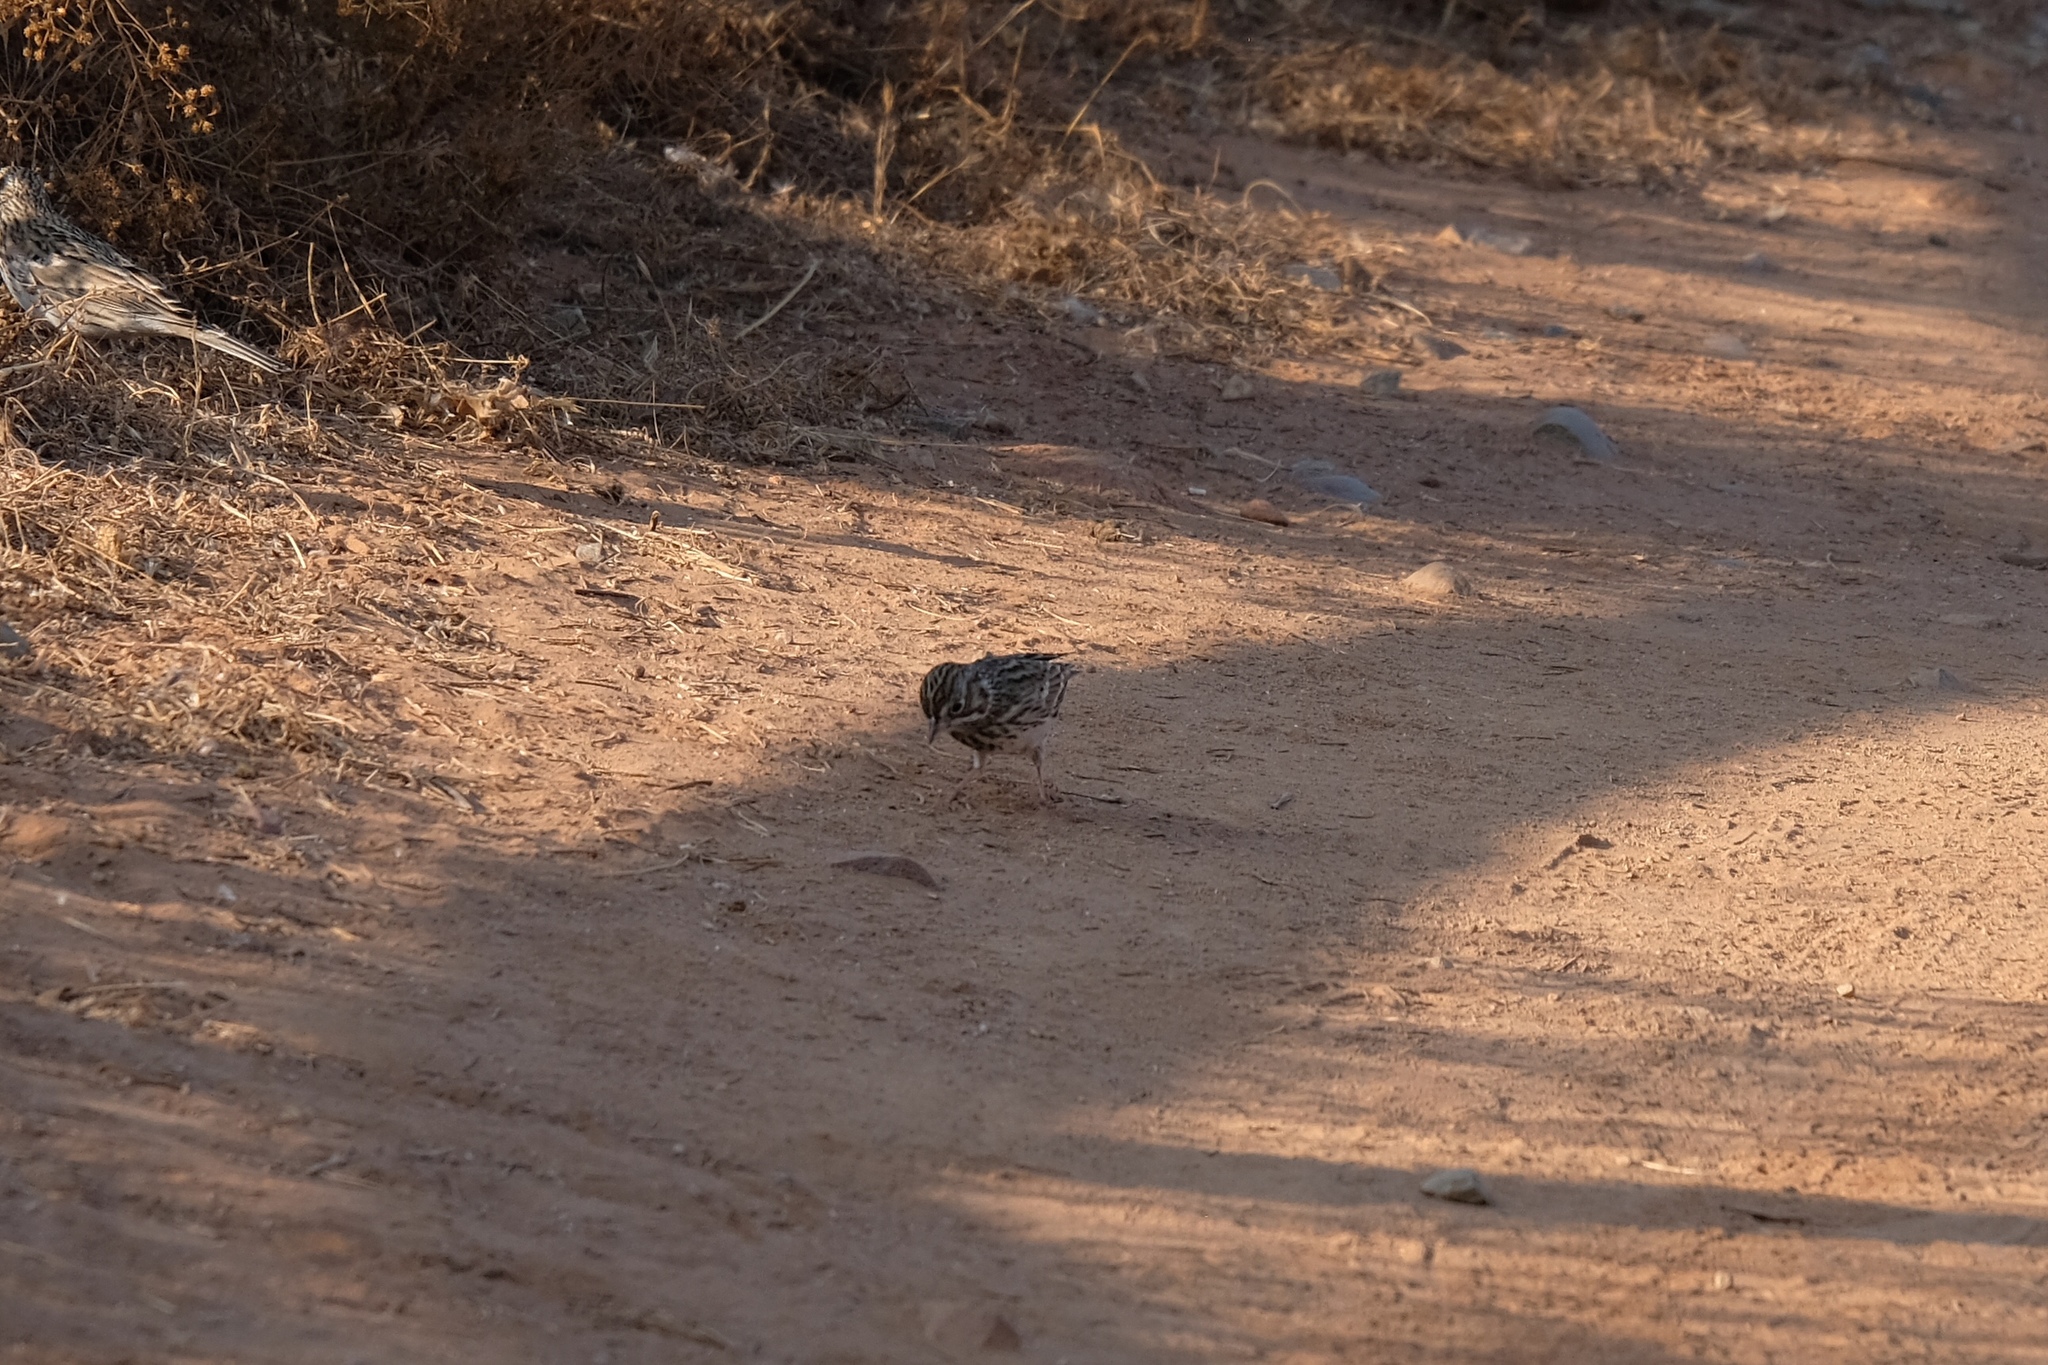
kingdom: Animalia
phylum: Chordata
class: Aves
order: Passeriformes
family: Passerellidae
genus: Pooecetes
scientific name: Pooecetes gramineus
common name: Vesper sparrow
